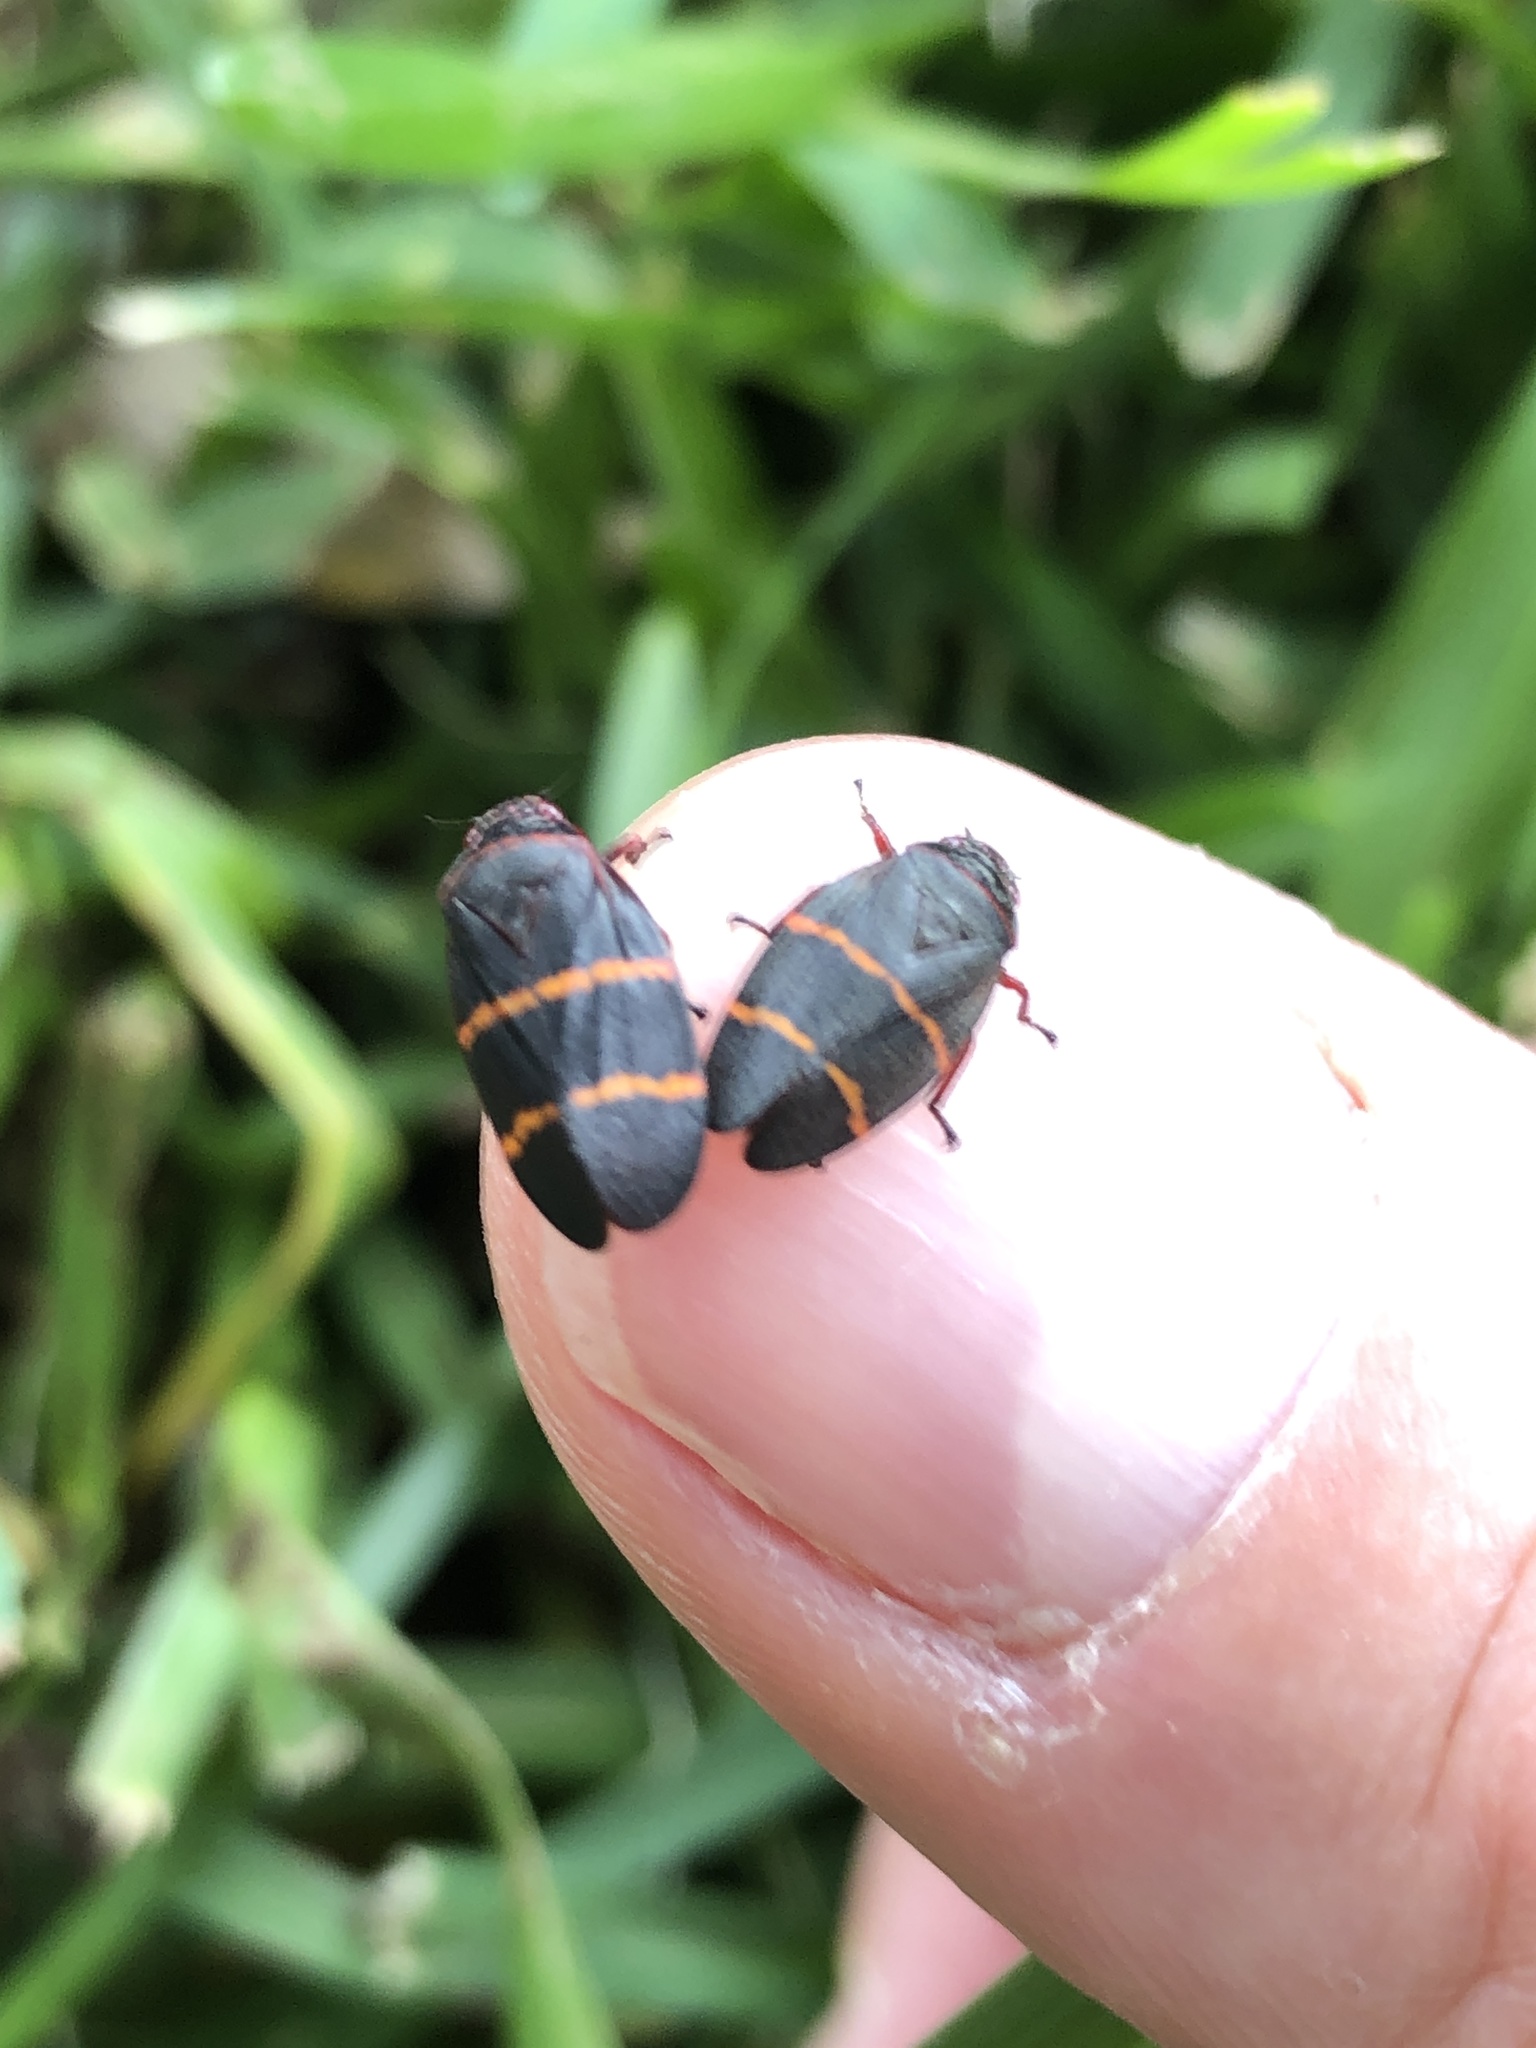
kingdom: Animalia
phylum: Arthropoda
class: Insecta
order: Hemiptera
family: Cercopidae
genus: Prosapia
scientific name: Prosapia bicincta
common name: Twolined spittlebug
